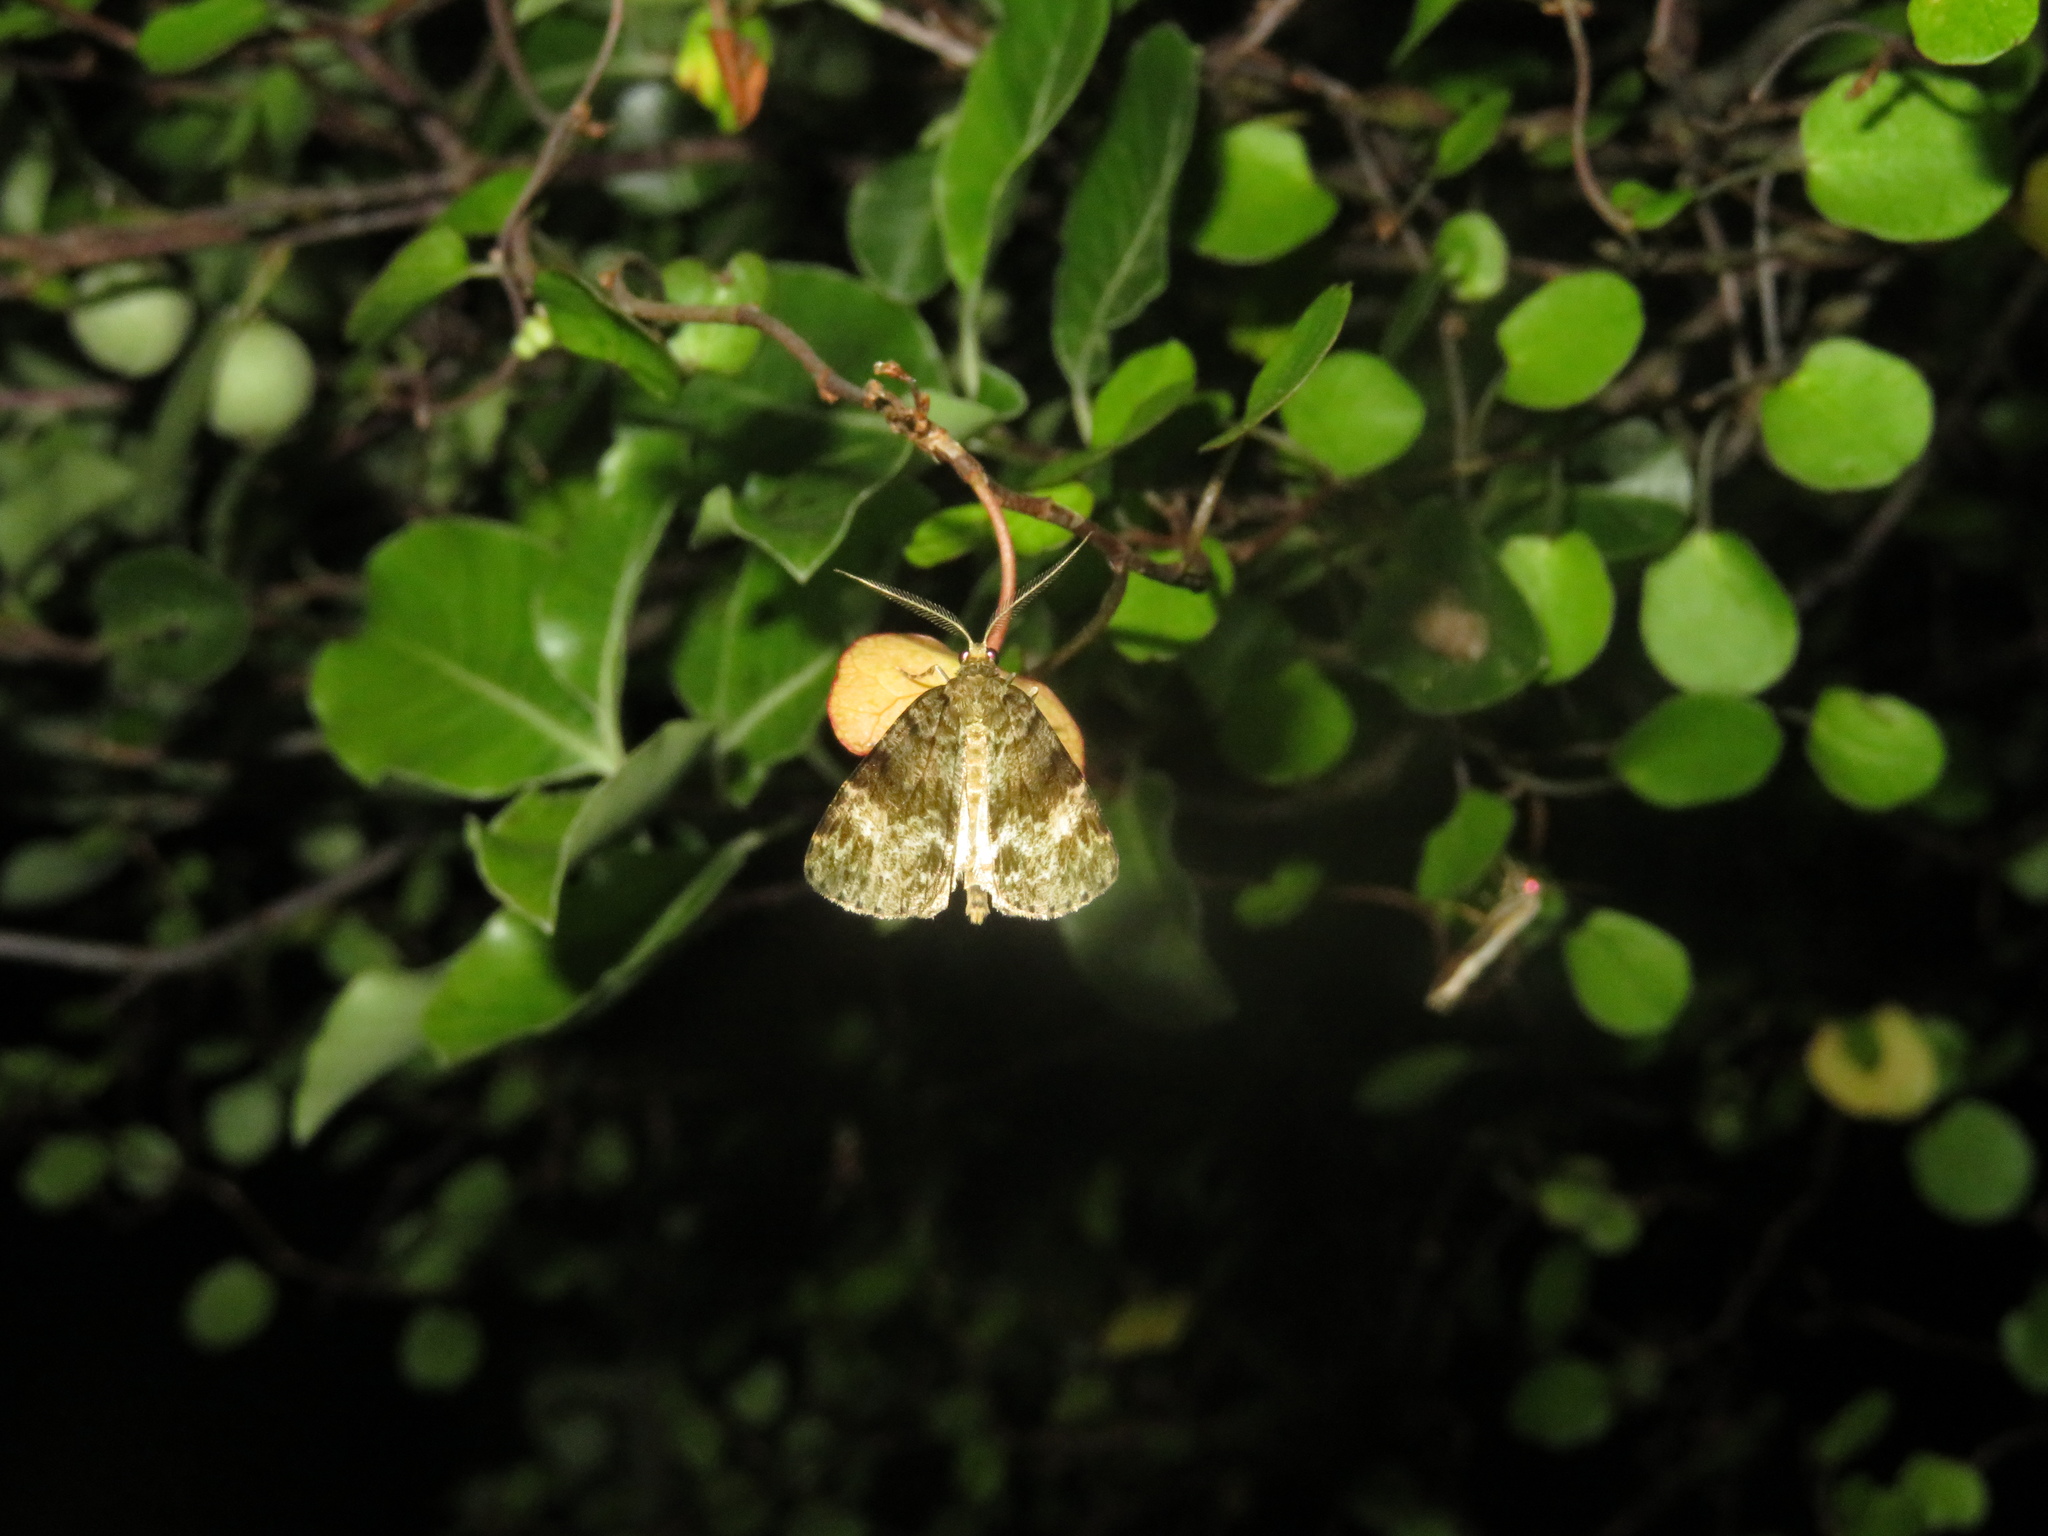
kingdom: Animalia
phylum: Arthropoda
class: Insecta
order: Lepidoptera
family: Geometridae
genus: Pseudocoremia
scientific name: Pseudocoremia indistincta
